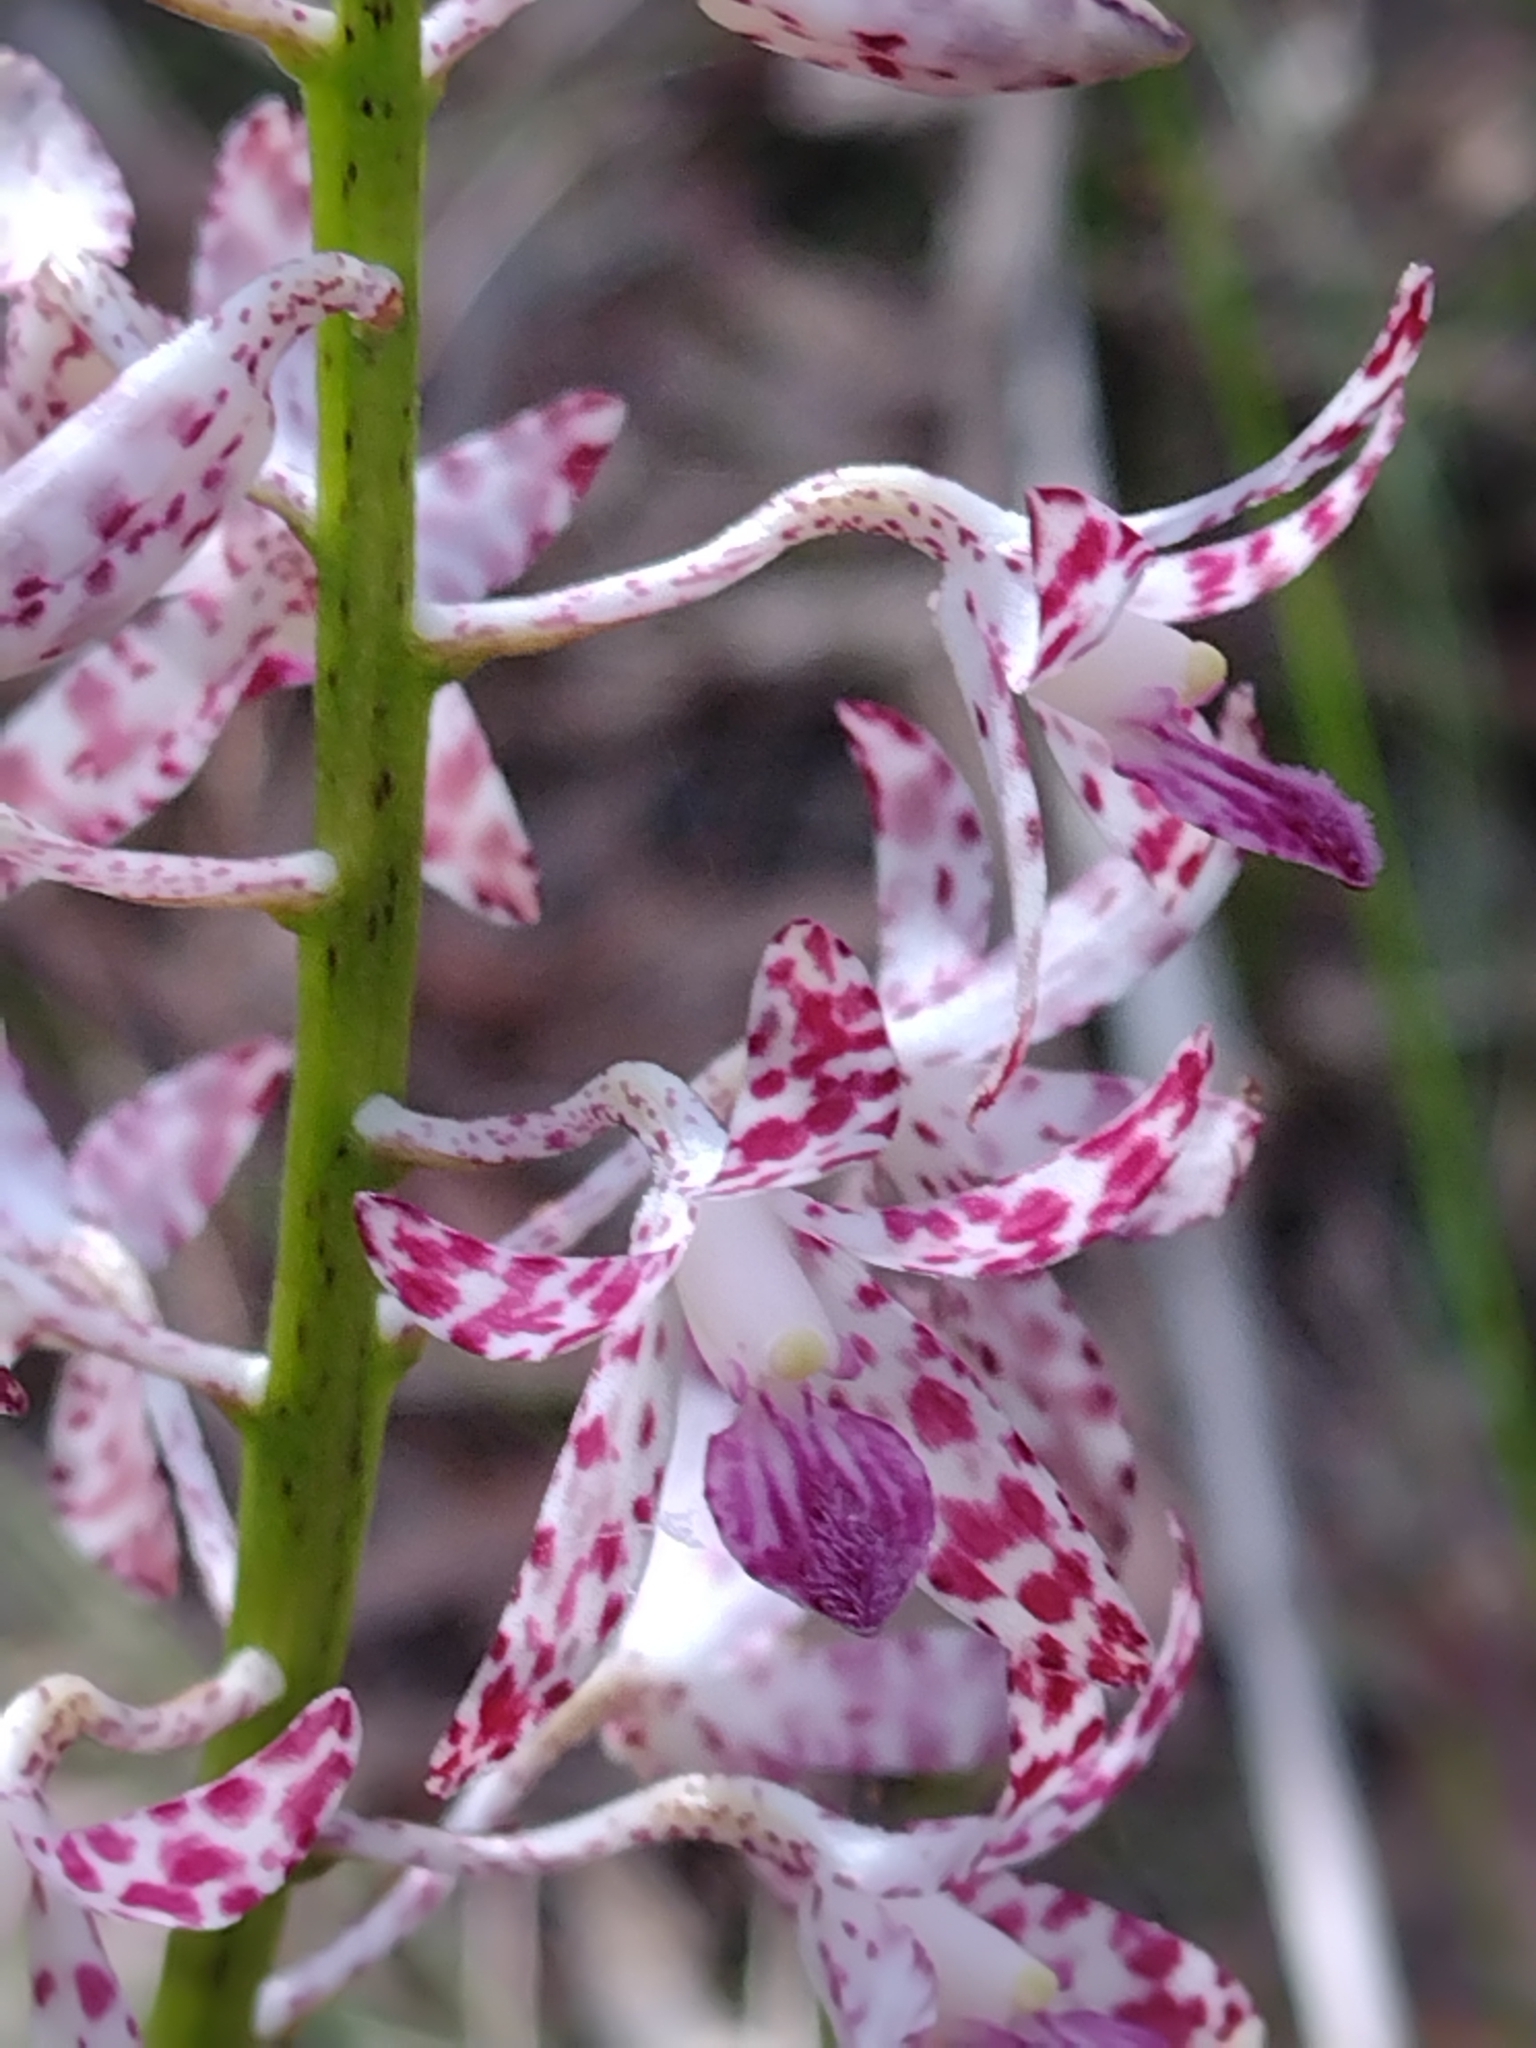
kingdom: Plantae
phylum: Tracheophyta
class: Liliopsida
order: Asparagales
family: Orchidaceae
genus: Dipodium
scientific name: Dipodium variegatum
